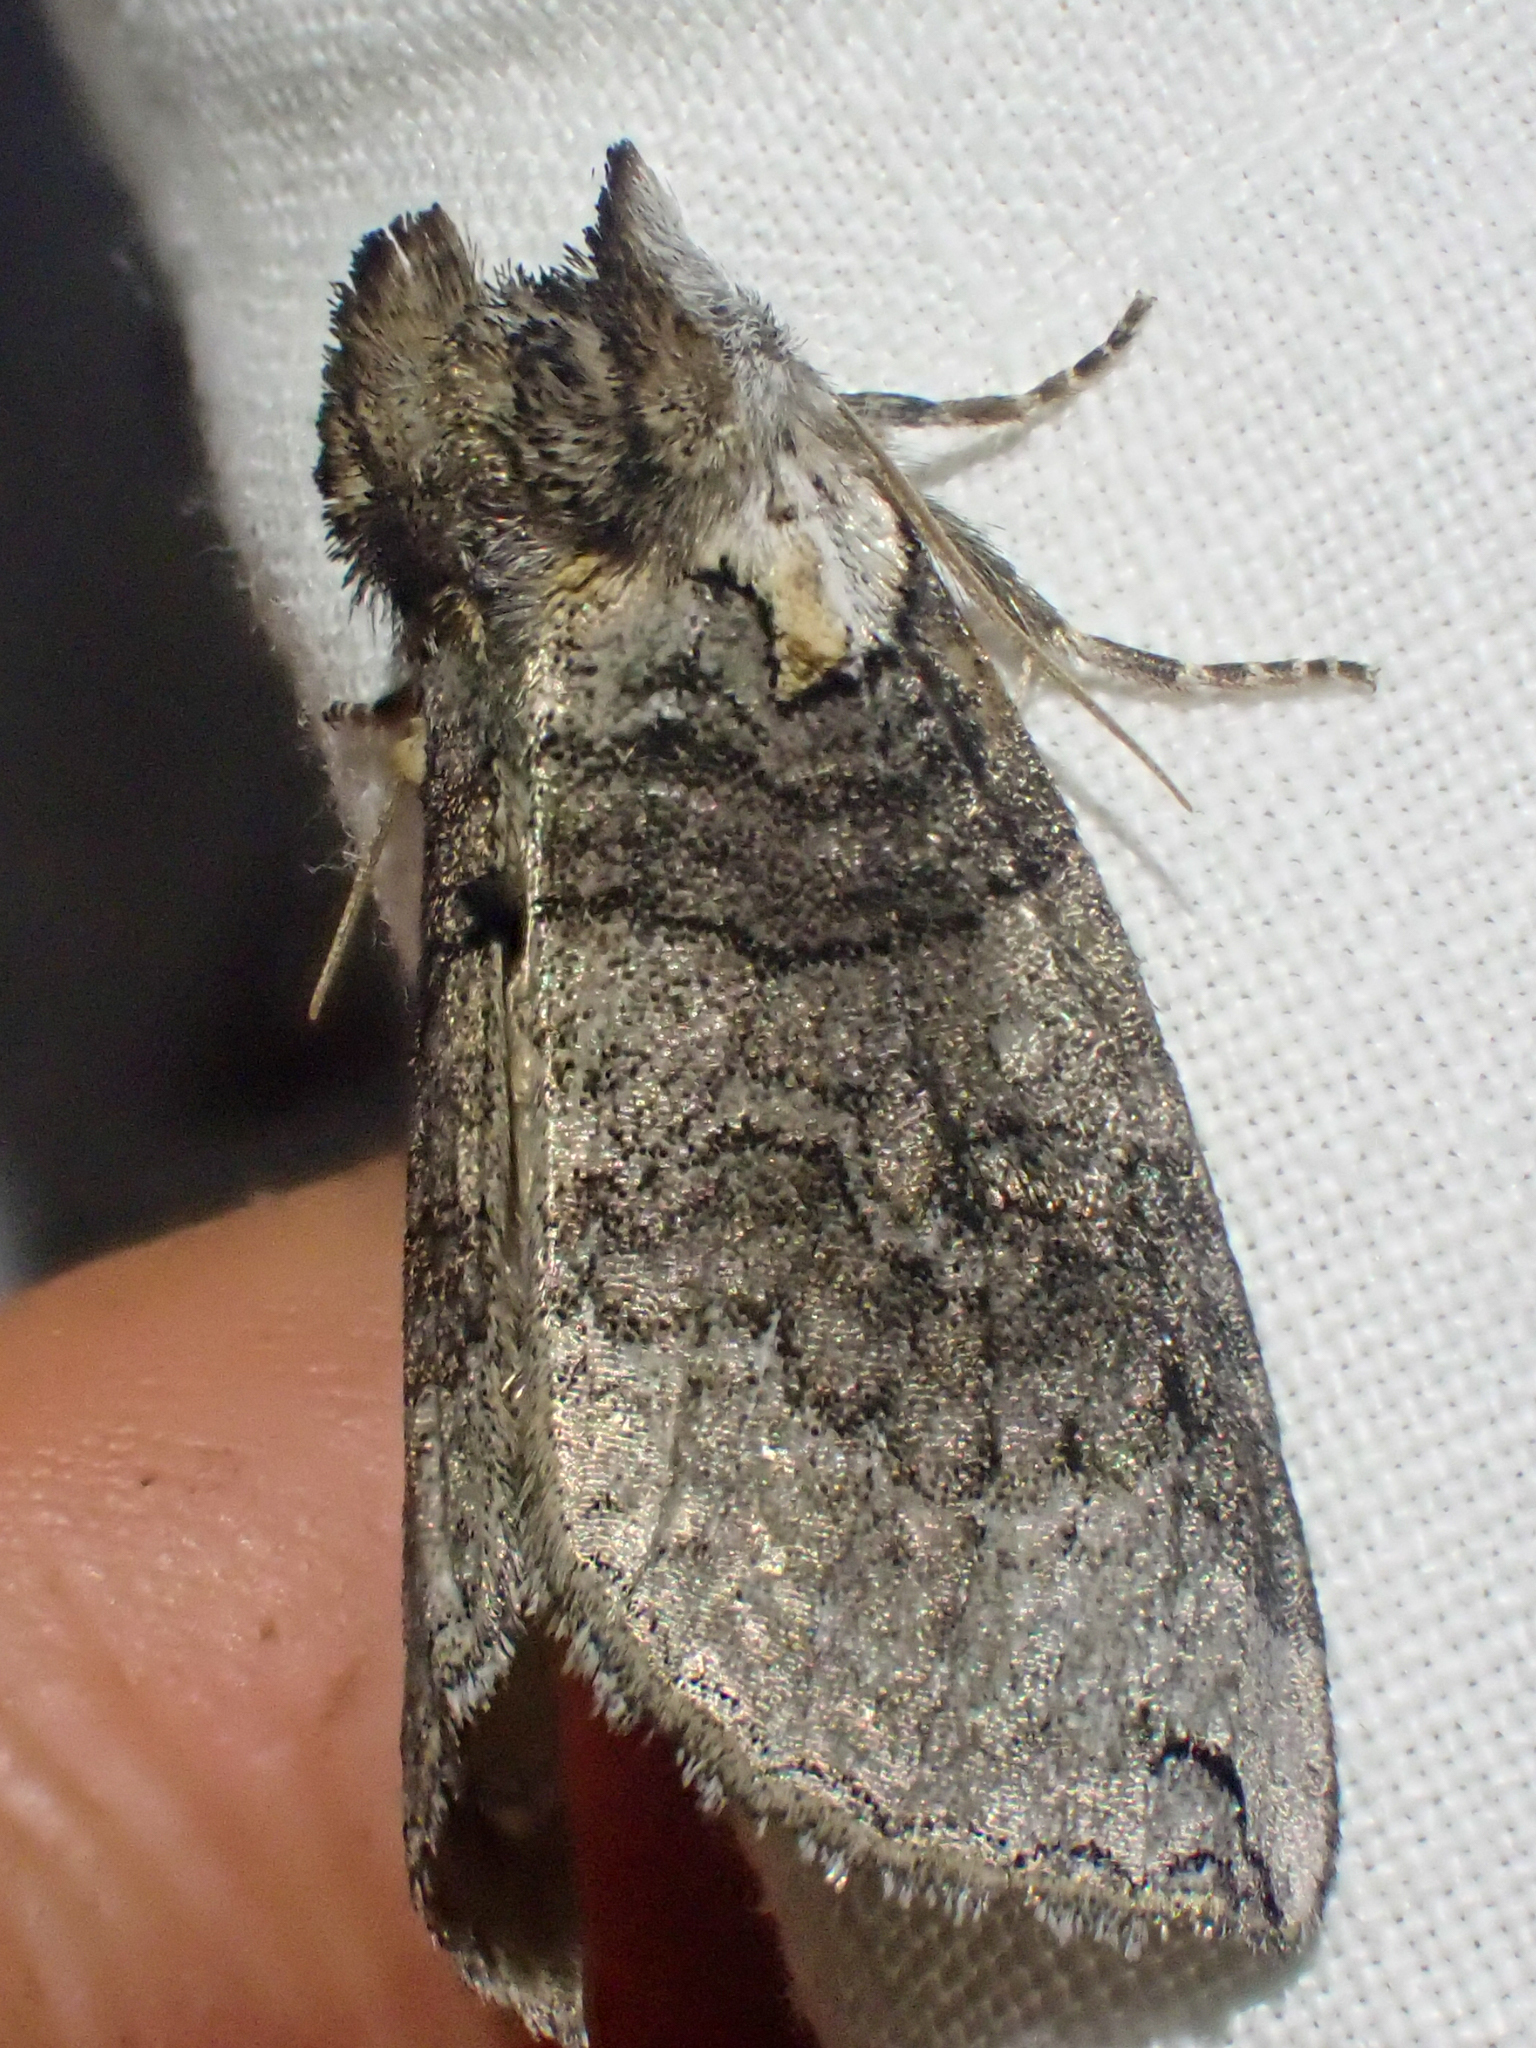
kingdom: Animalia
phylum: Arthropoda
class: Insecta
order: Lepidoptera
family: Drepanidae
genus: Euthyatira
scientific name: Euthyatira semicircularis
